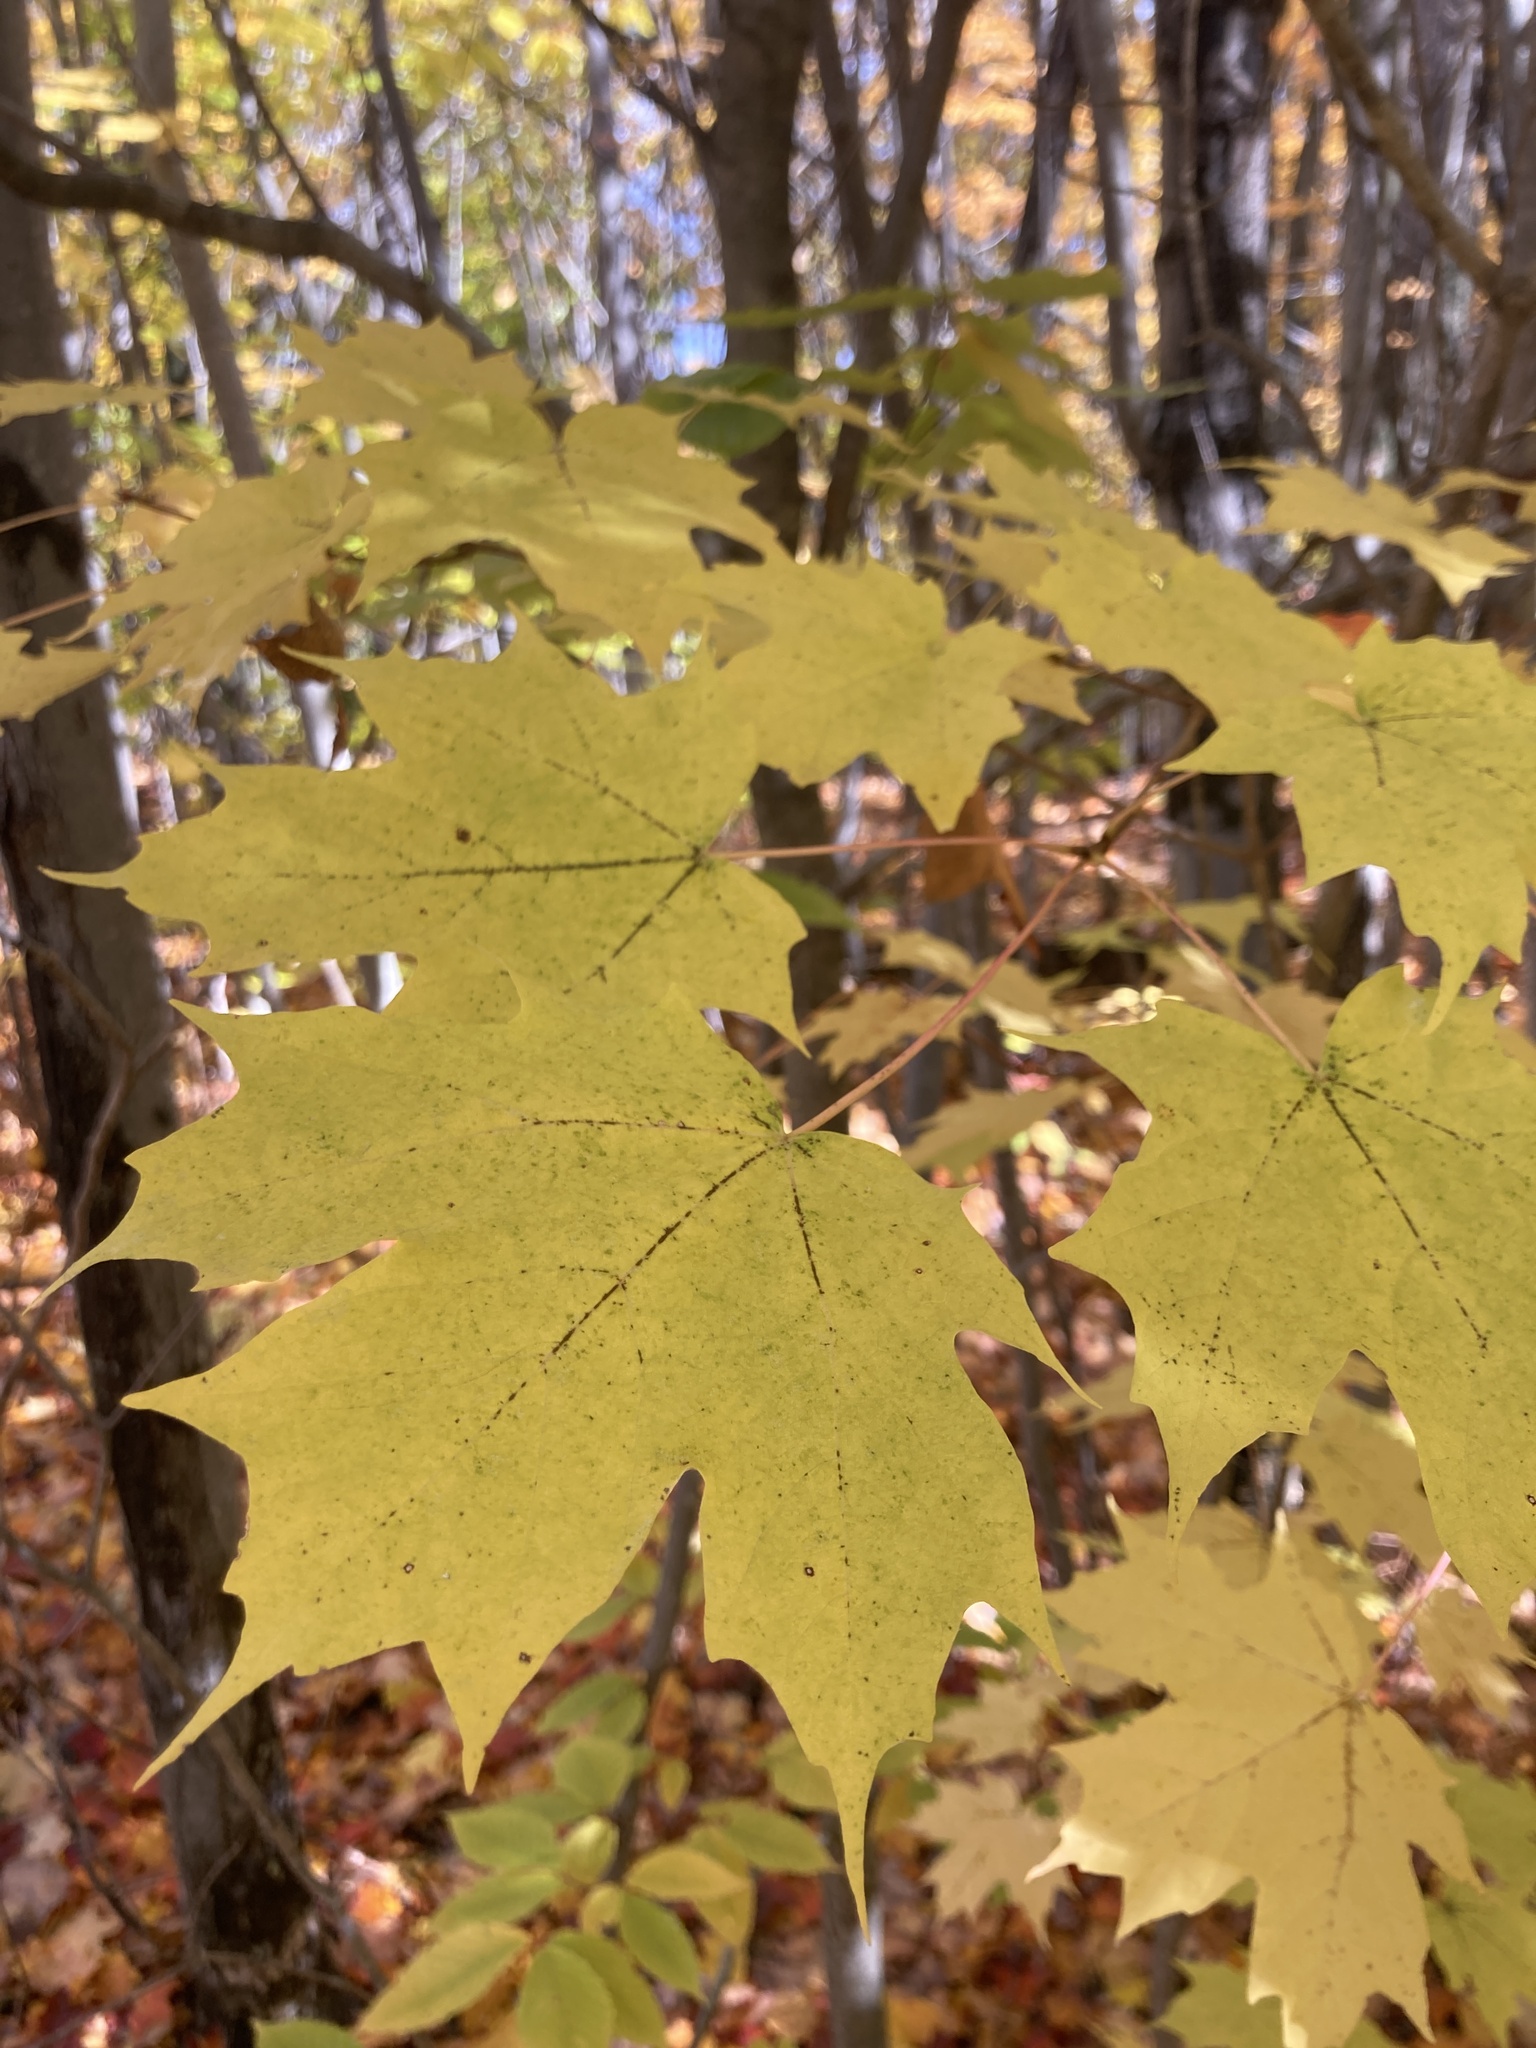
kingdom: Plantae
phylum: Tracheophyta
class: Magnoliopsida
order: Sapindales
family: Sapindaceae
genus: Acer
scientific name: Acer saccharum
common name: Sugar maple
